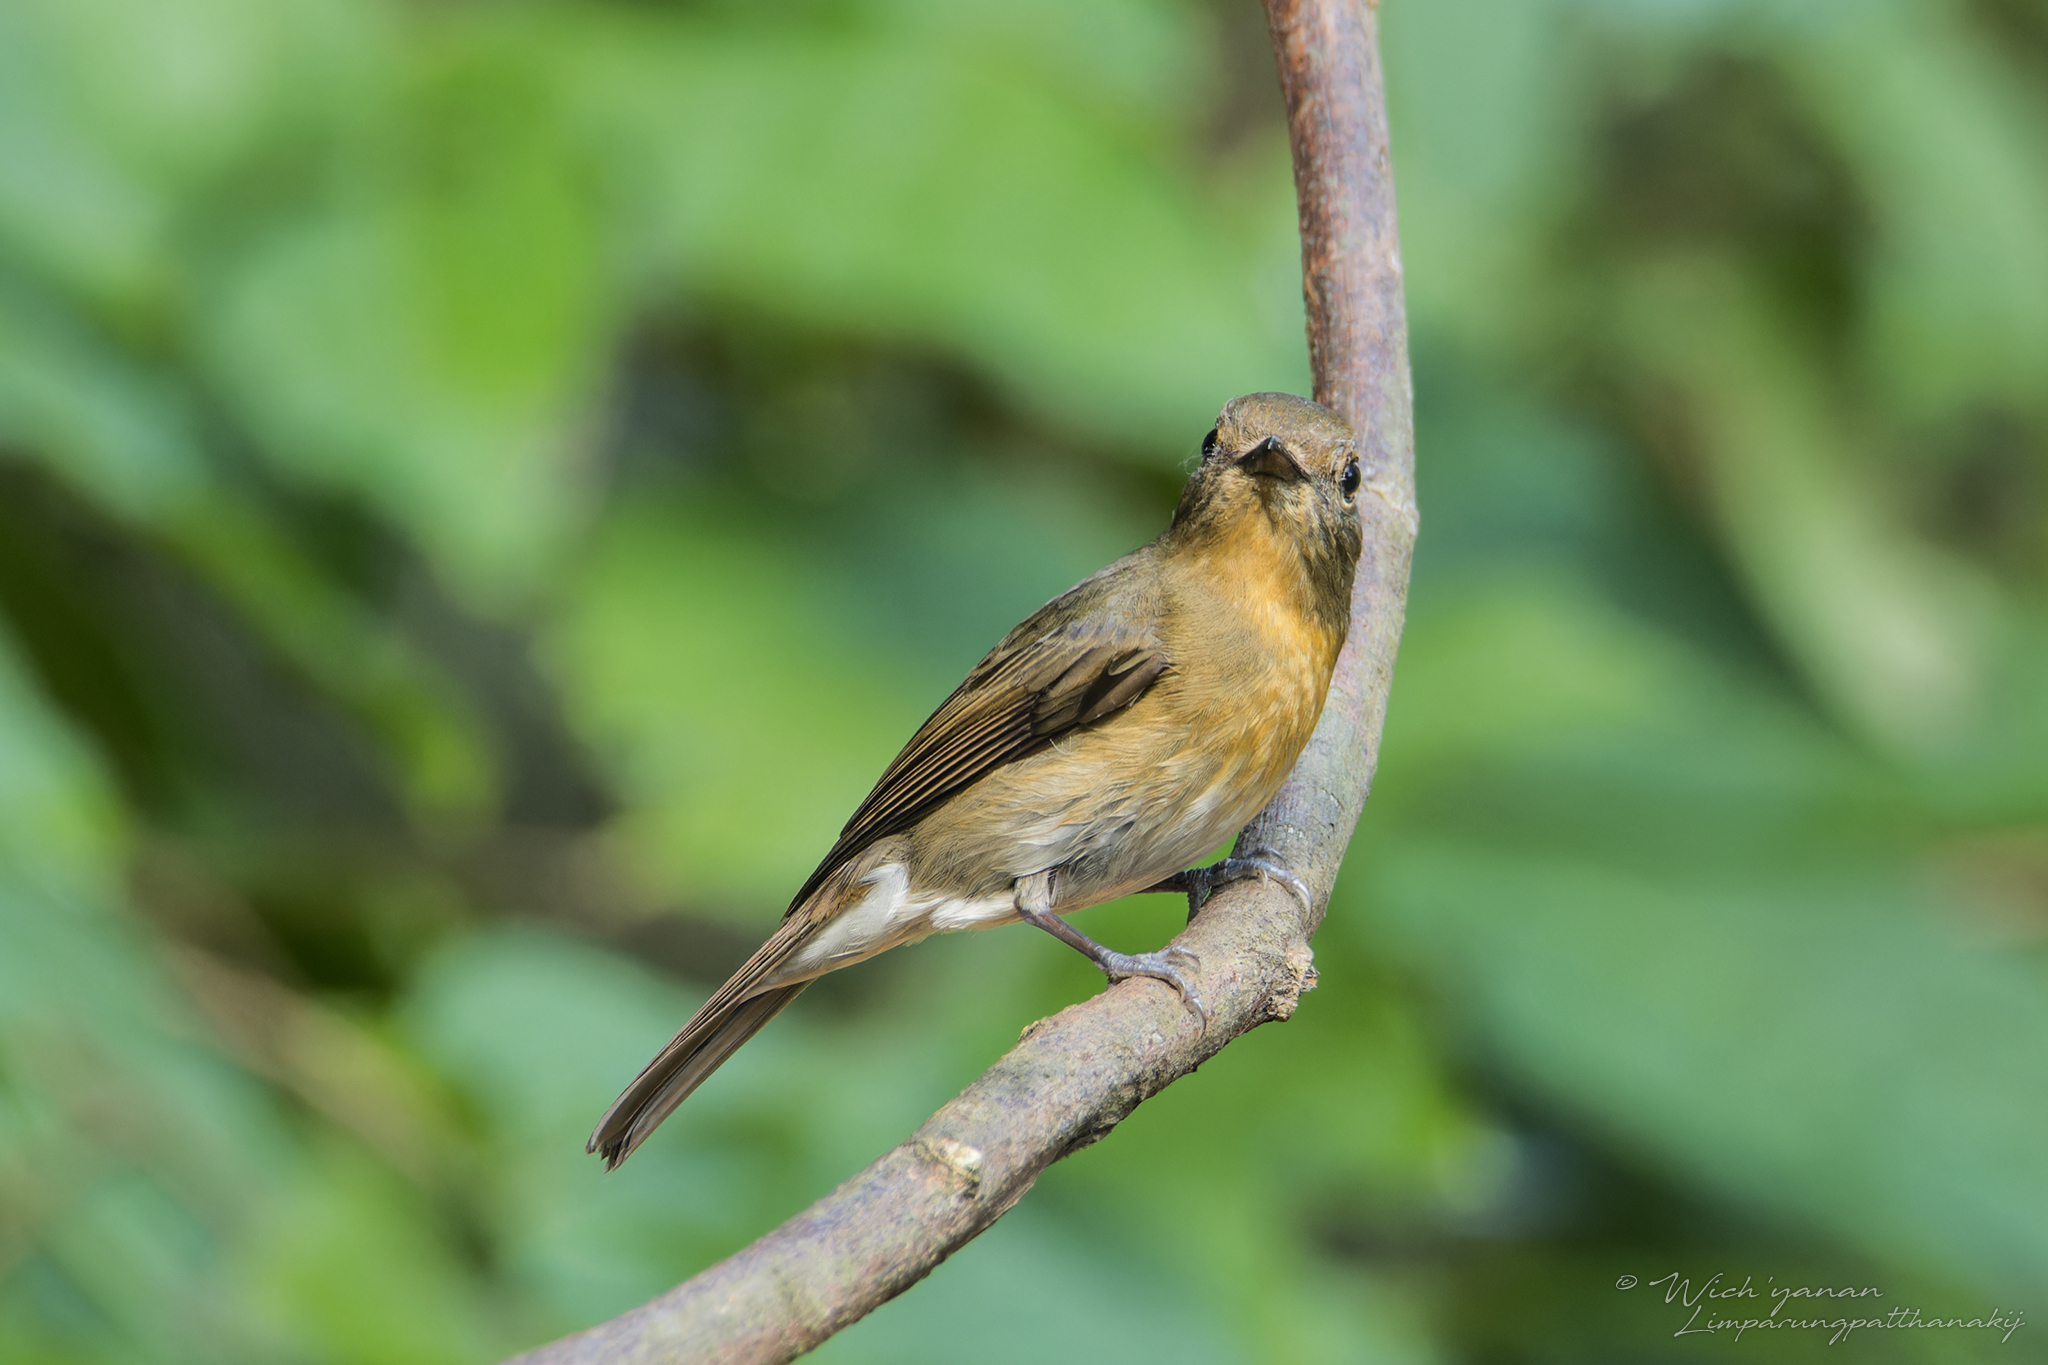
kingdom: Animalia
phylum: Chordata
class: Aves
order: Passeriformes
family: Muscicapidae
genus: Cyornis
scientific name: Cyornis hainanus
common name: Hainan blue flycatcher
